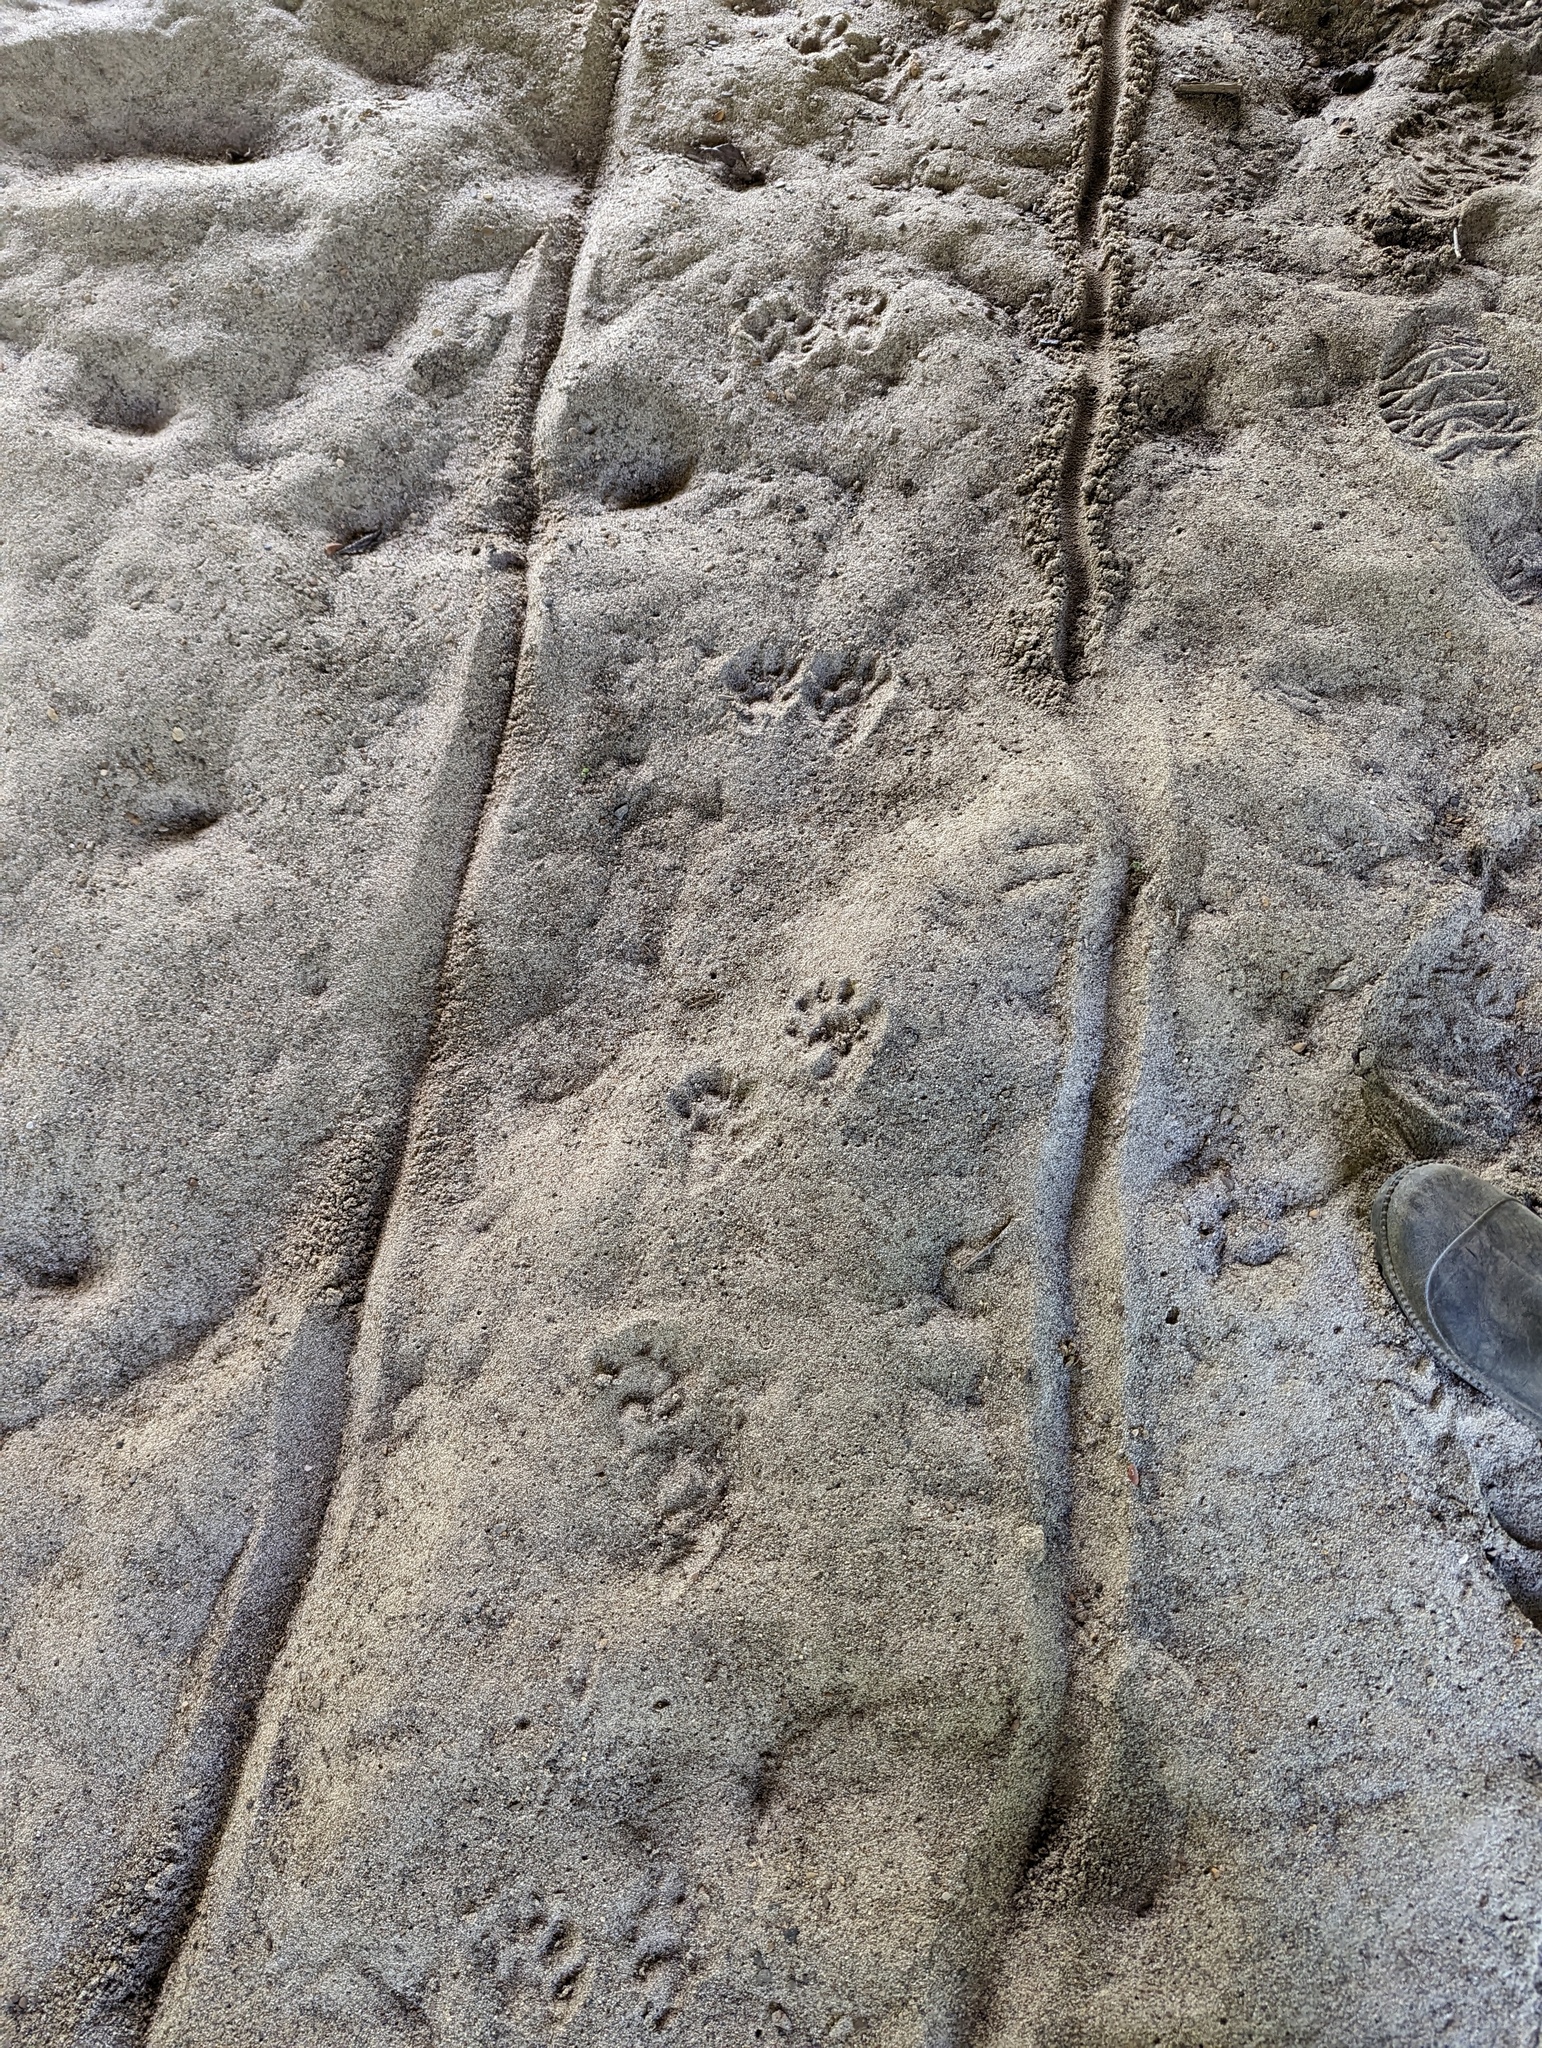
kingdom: Animalia
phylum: Chordata
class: Mammalia
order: Carnivora
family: Procyonidae
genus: Procyon
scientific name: Procyon lotor
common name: Raccoon
